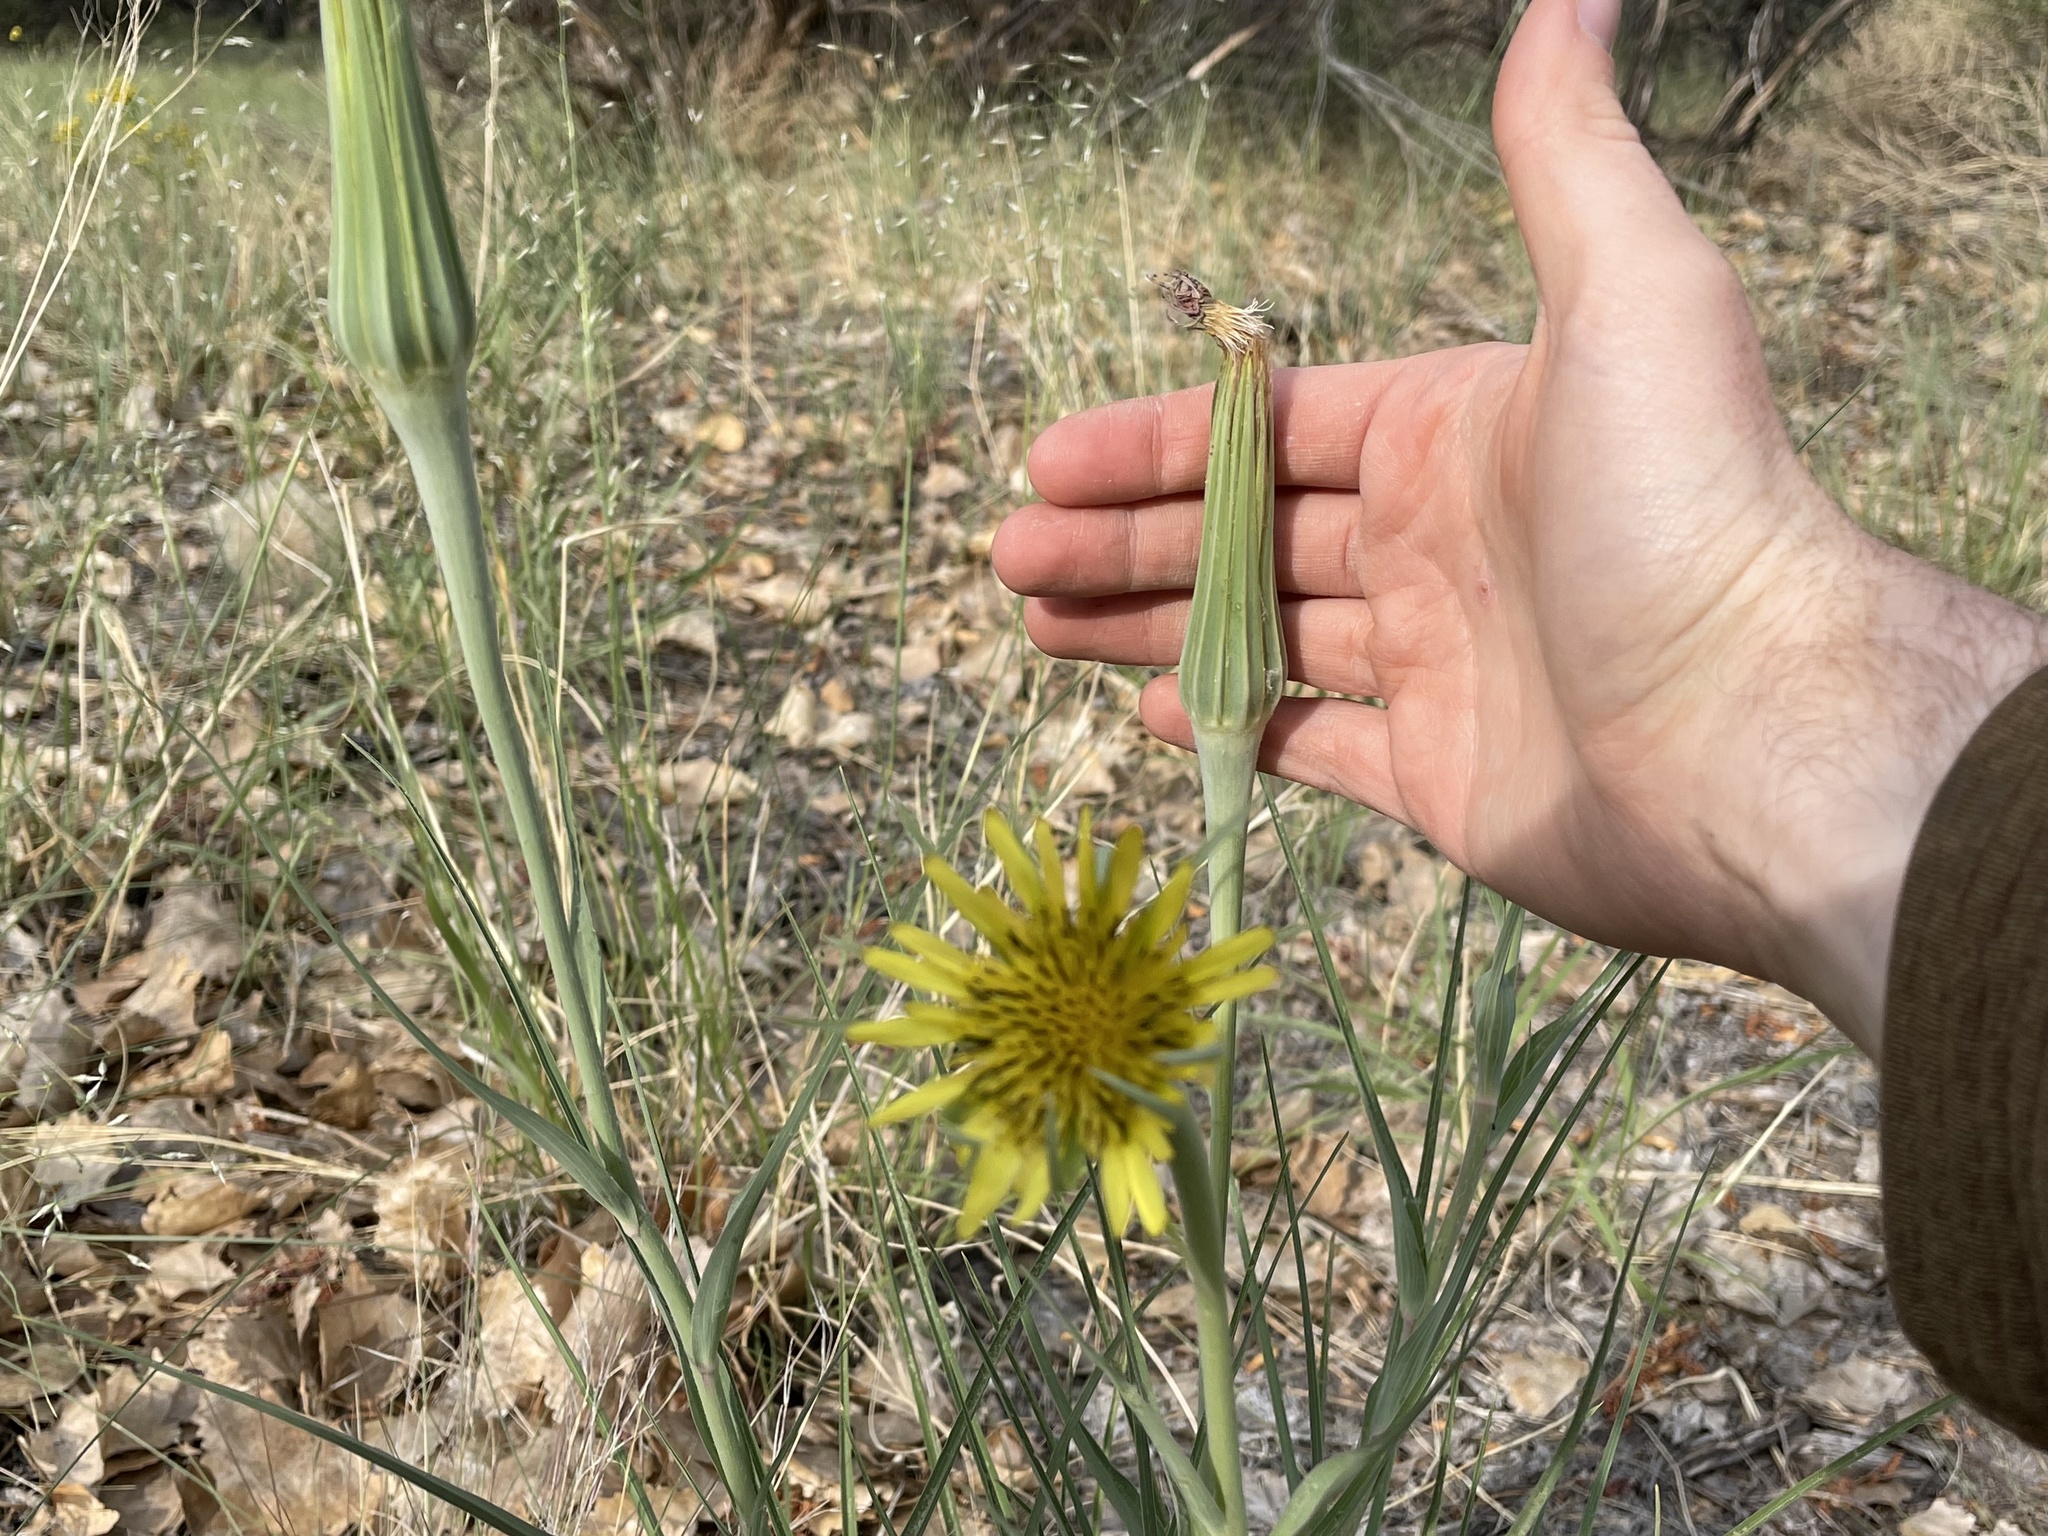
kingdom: Plantae
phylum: Tracheophyta
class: Magnoliopsida
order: Asterales
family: Asteraceae
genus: Tragopogon
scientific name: Tragopogon dubius
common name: Yellow salsify
